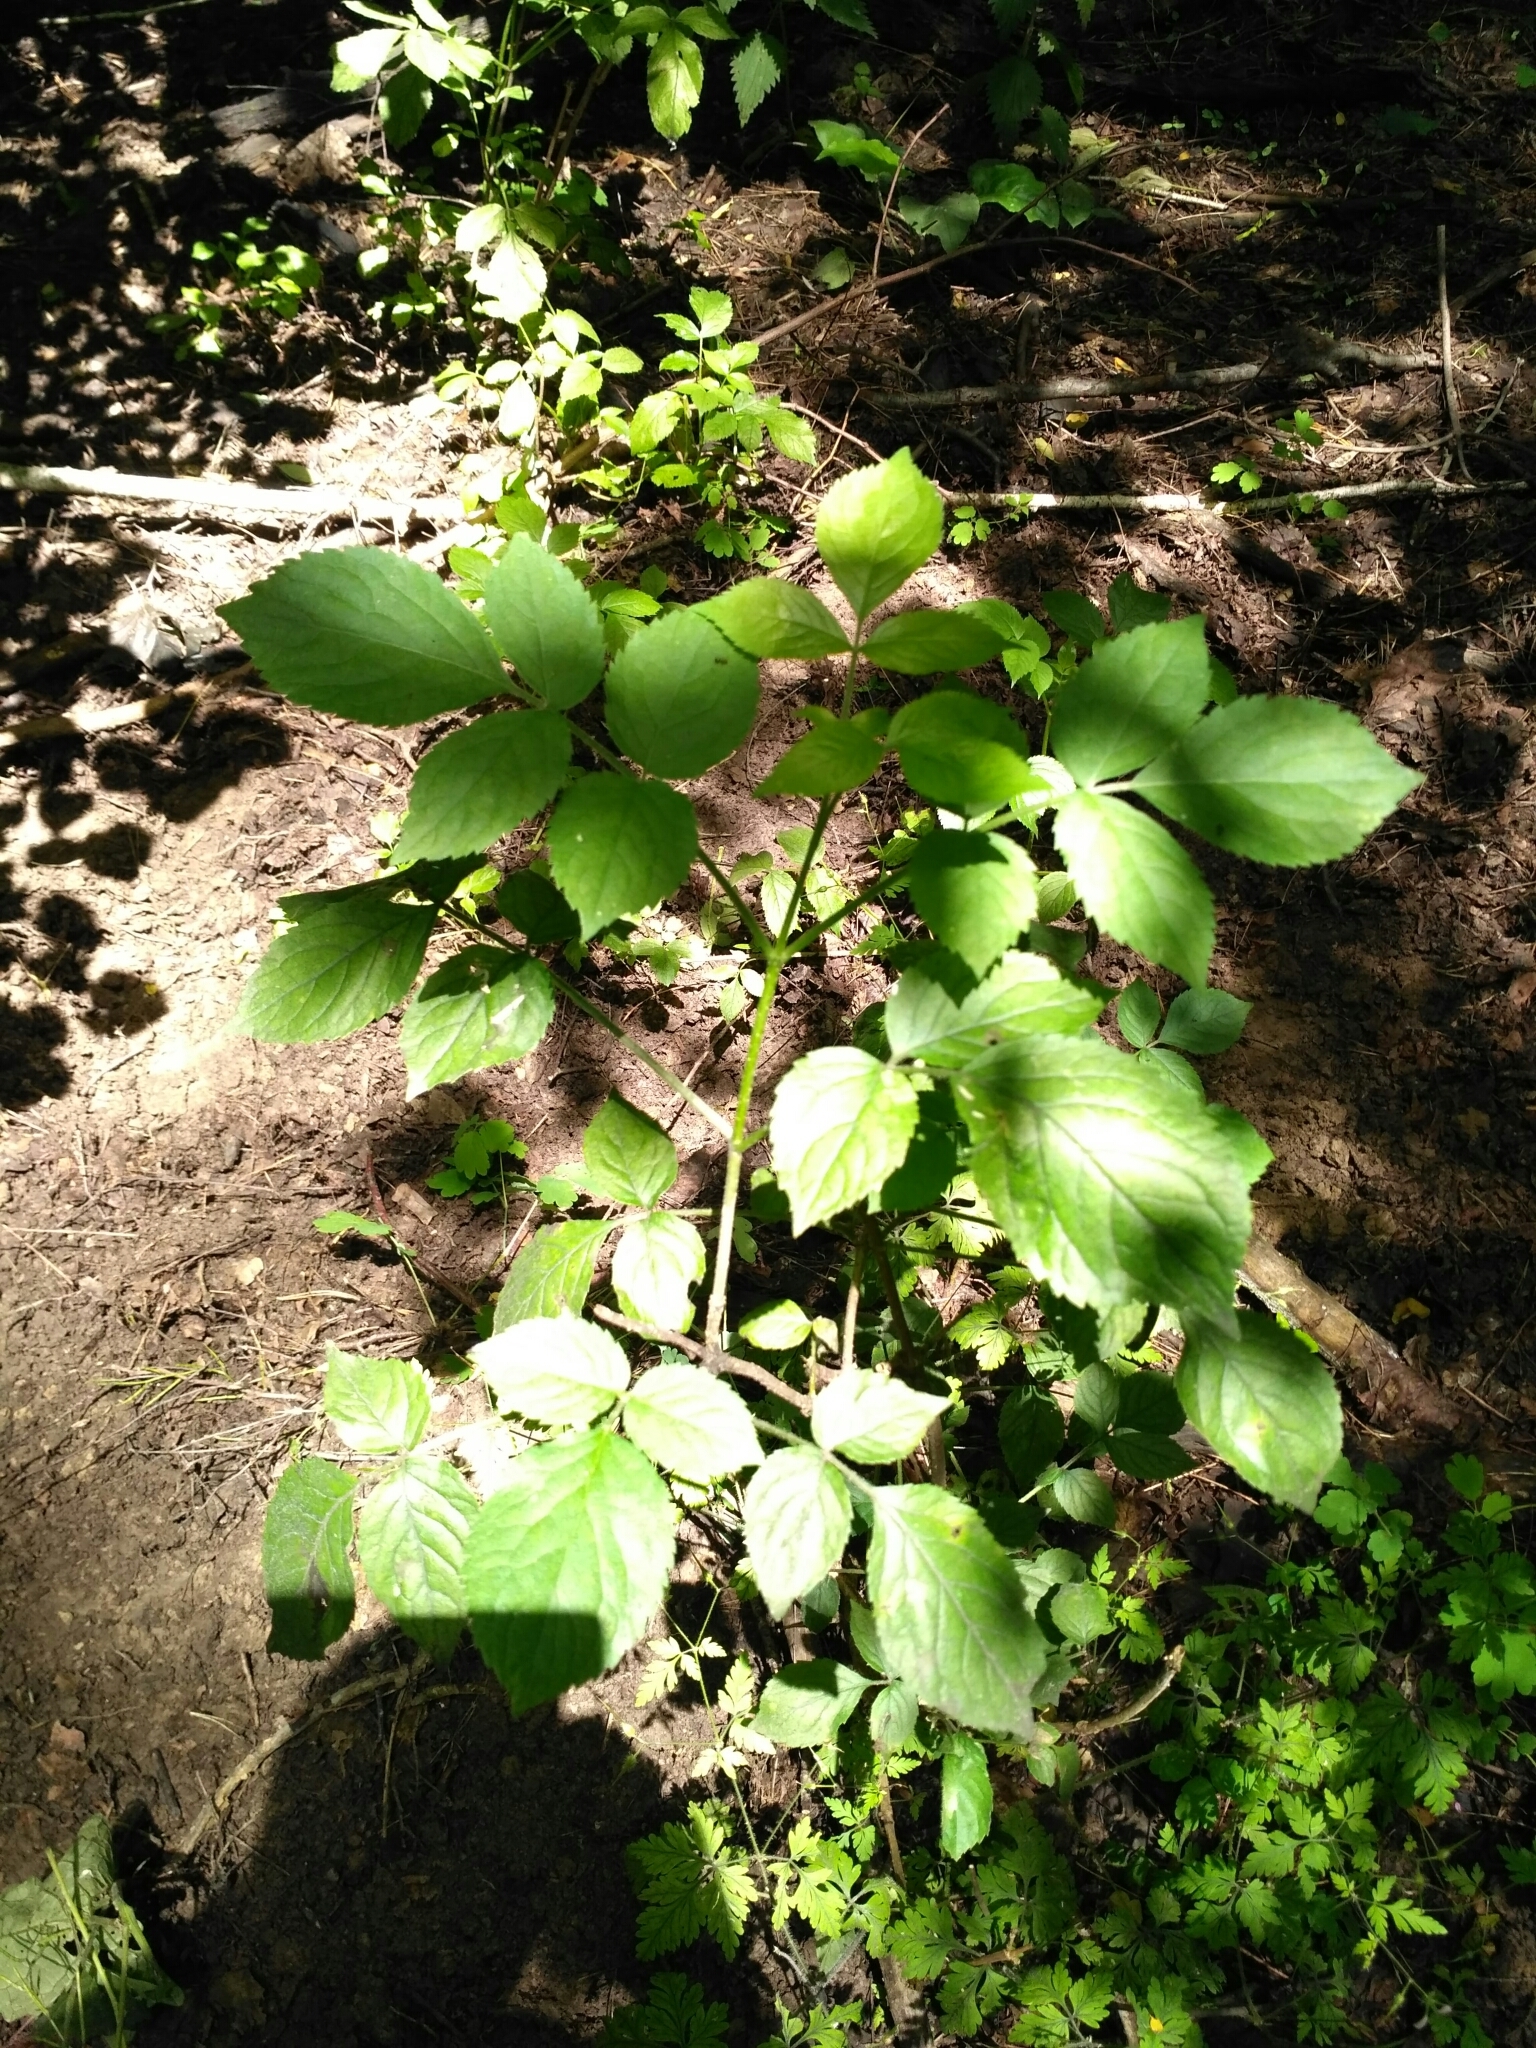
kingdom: Plantae
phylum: Tracheophyta
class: Magnoliopsida
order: Dipsacales
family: Viburnaceae
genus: Sambucus
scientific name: Sambucus nigra
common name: Elder
